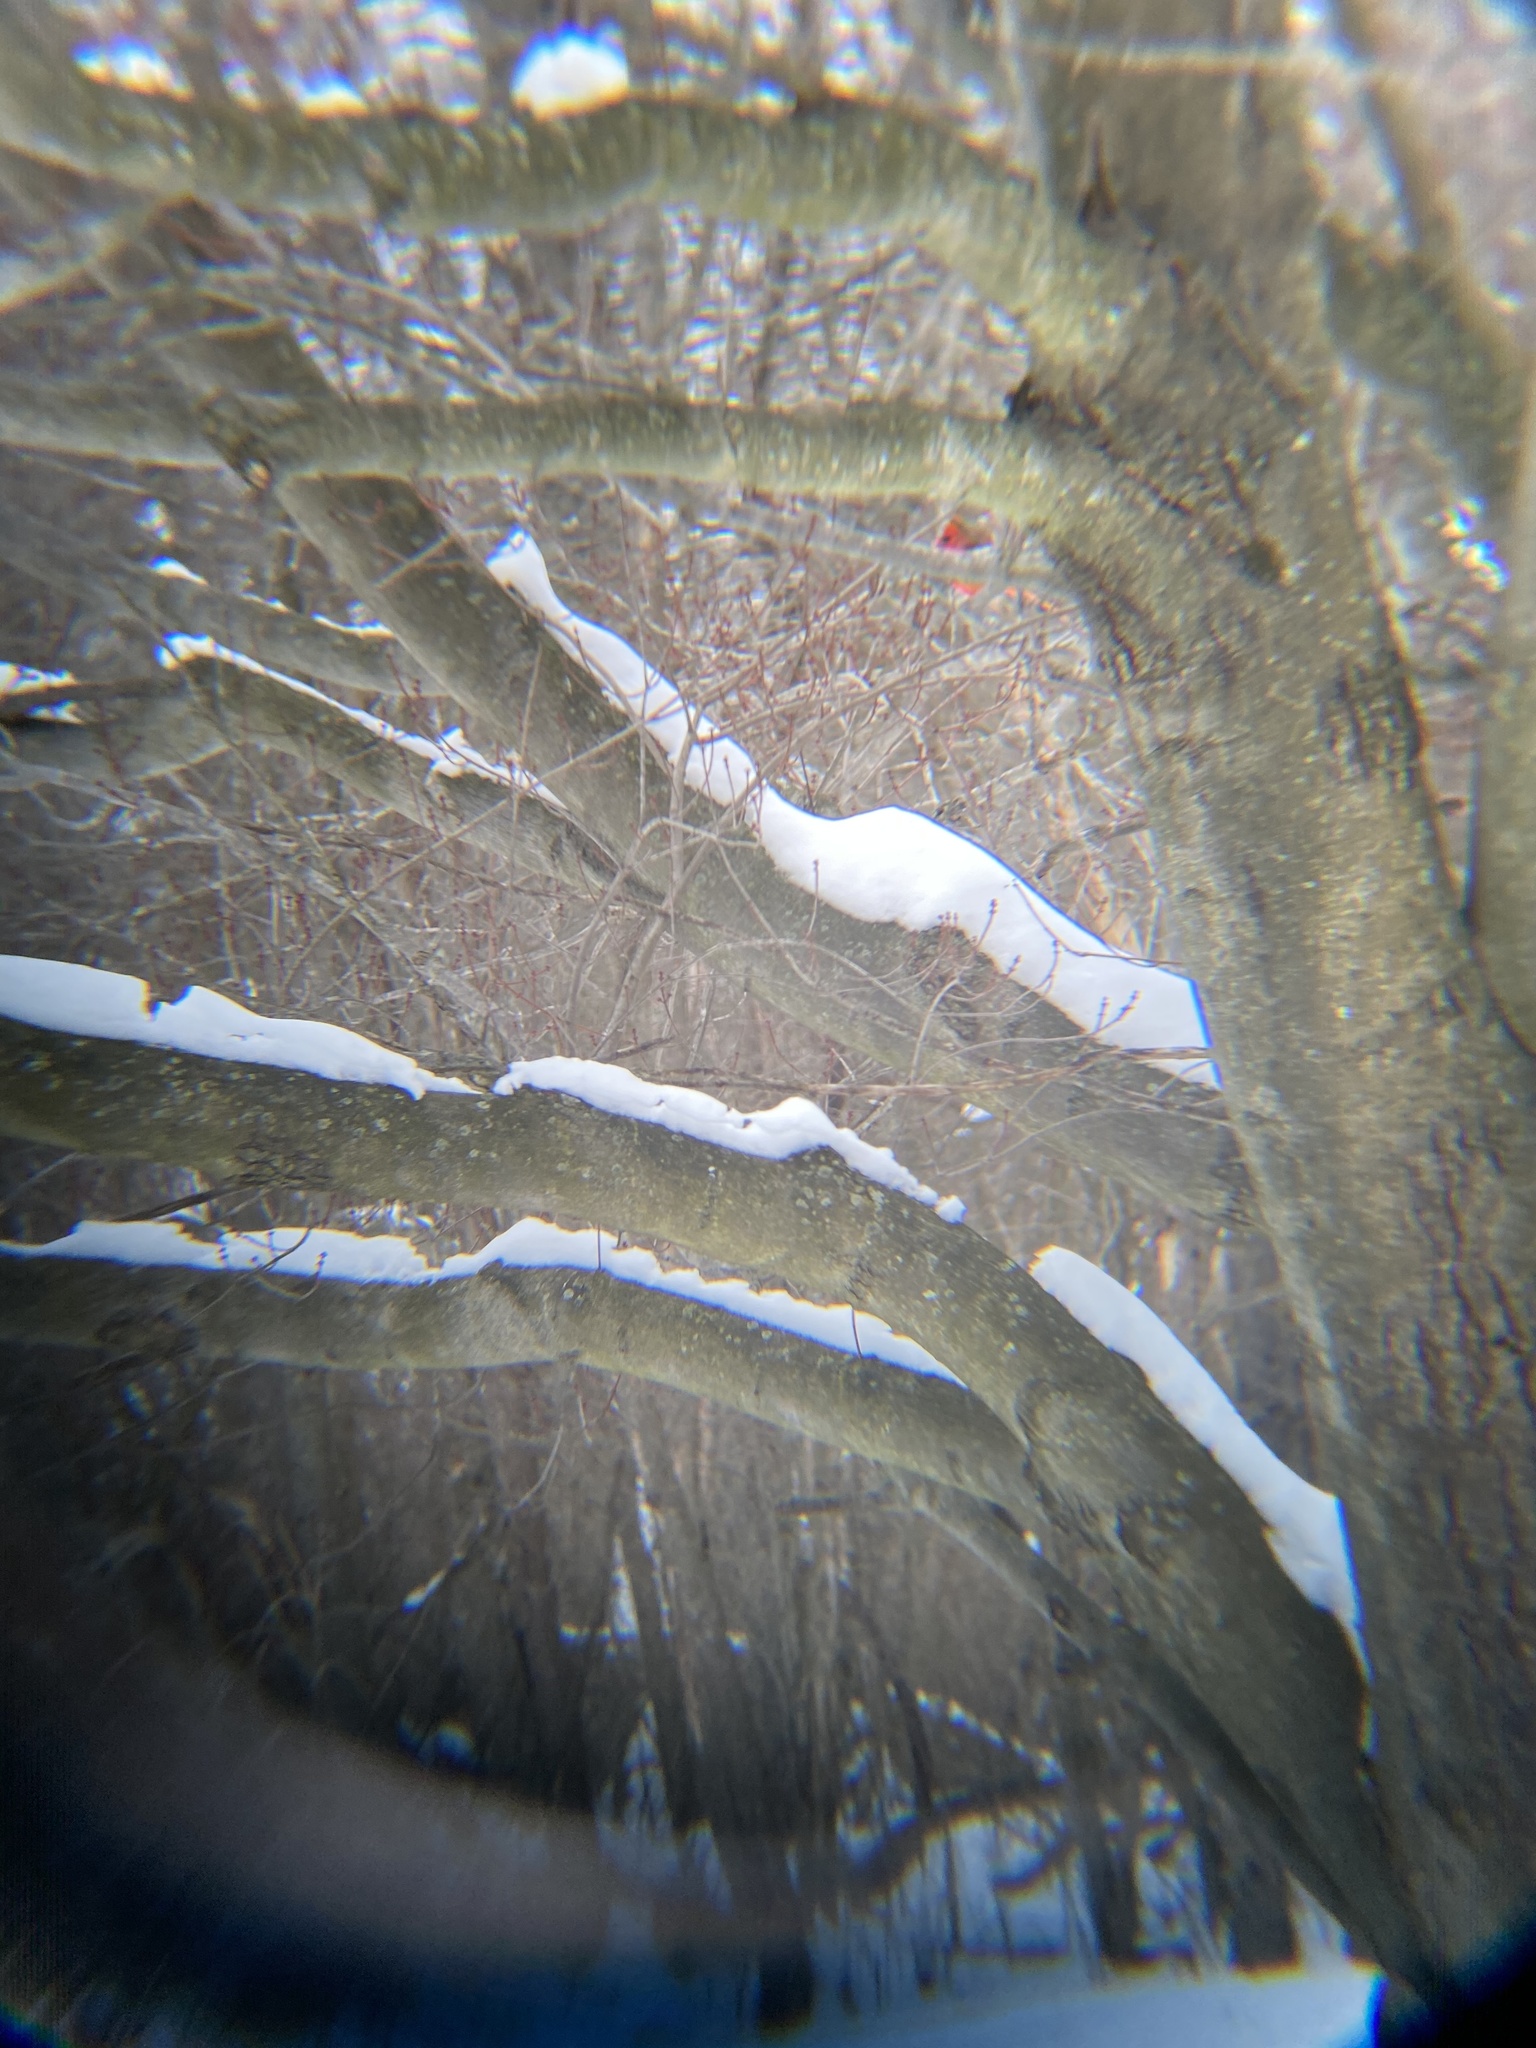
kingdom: Animalia
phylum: Chordata
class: Aves
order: Passeriformes
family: Cardinalidae
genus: Cardinalis
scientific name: Cardinalis cardinalis
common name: Northern cardinal
